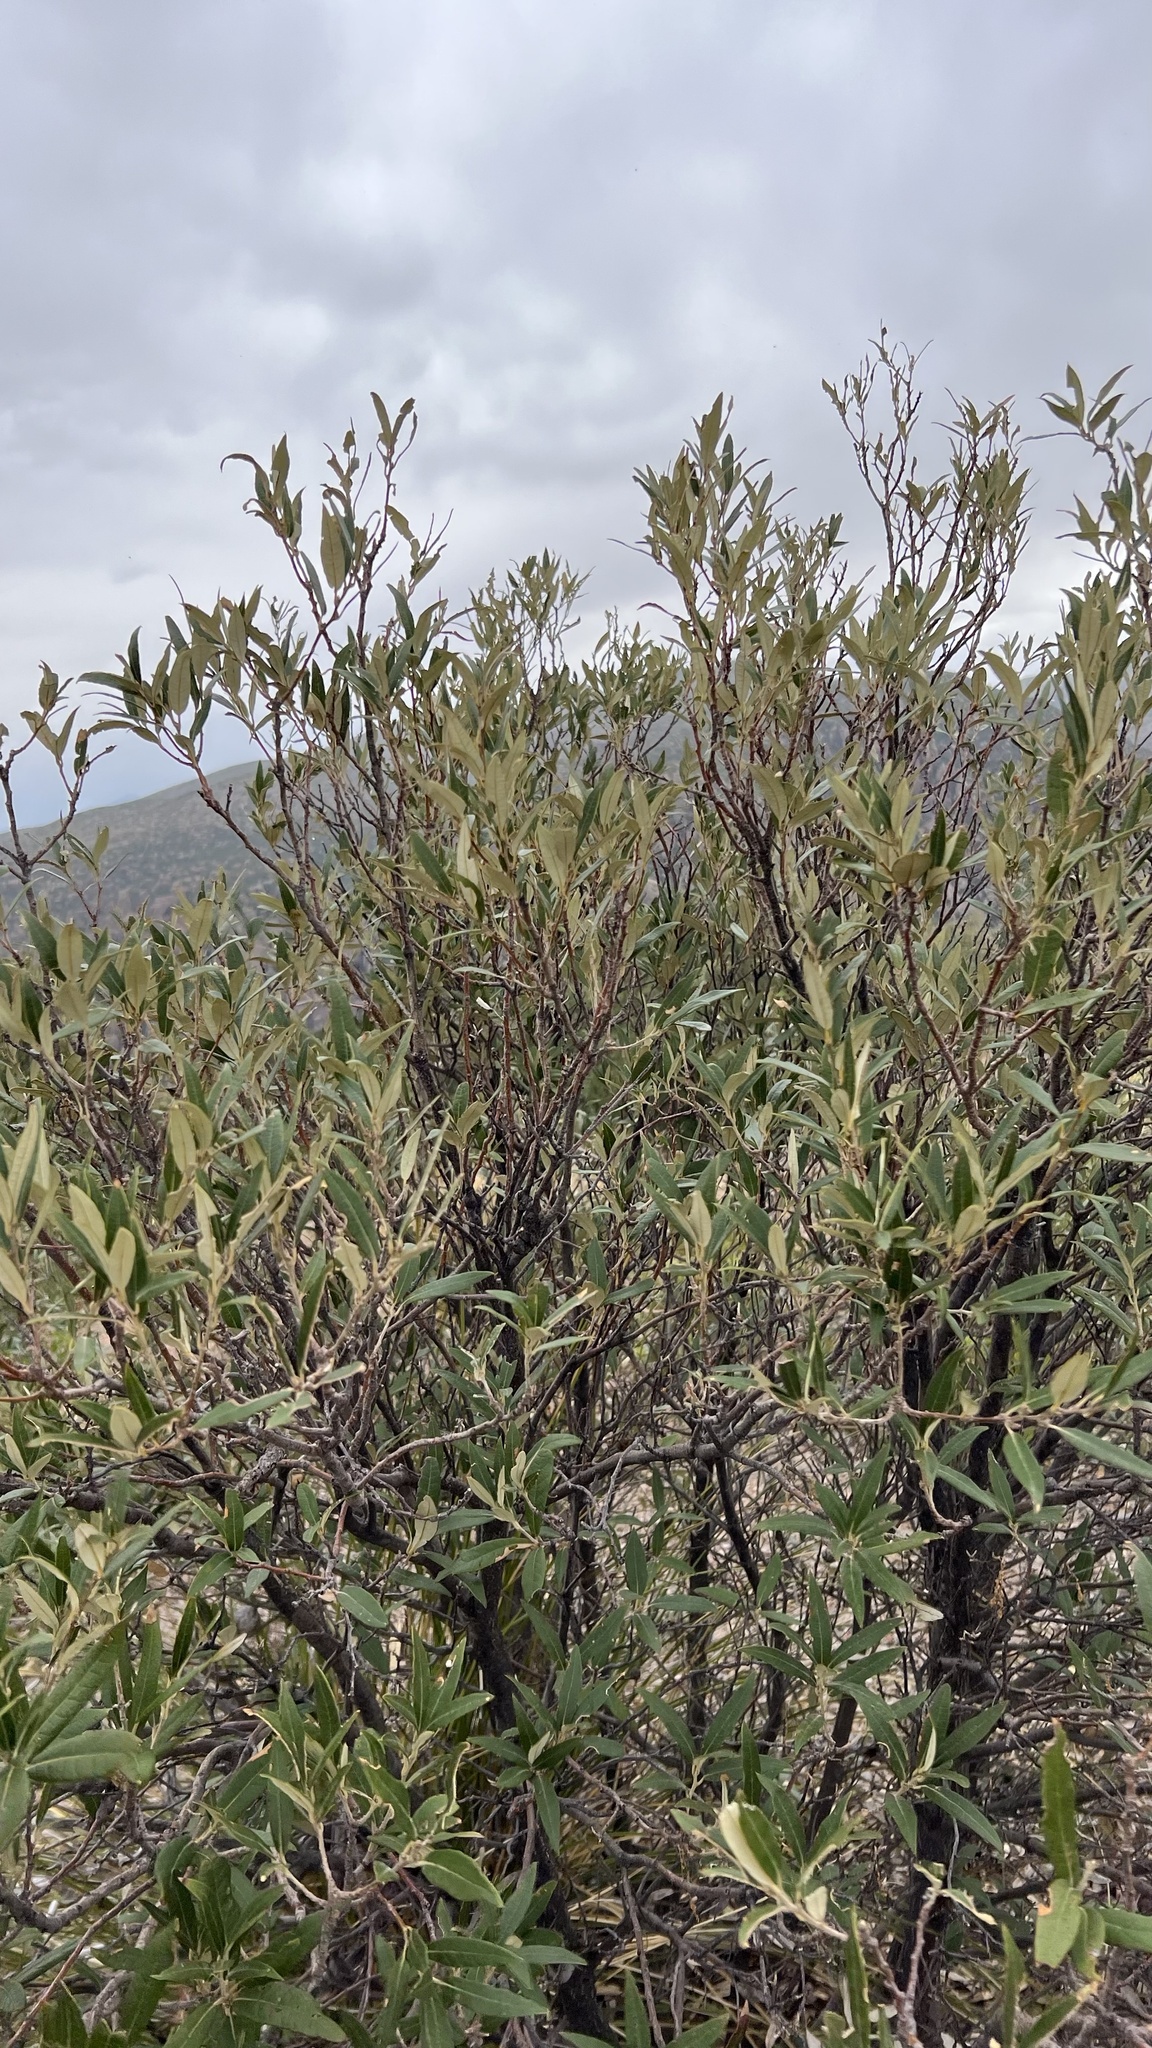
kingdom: Plantae
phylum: Tracheophyta
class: Magnoliopsida
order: Fagales
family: Fagaceae
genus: Quercus
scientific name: Quercus hypoleucoides
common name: Silverleaf oak
